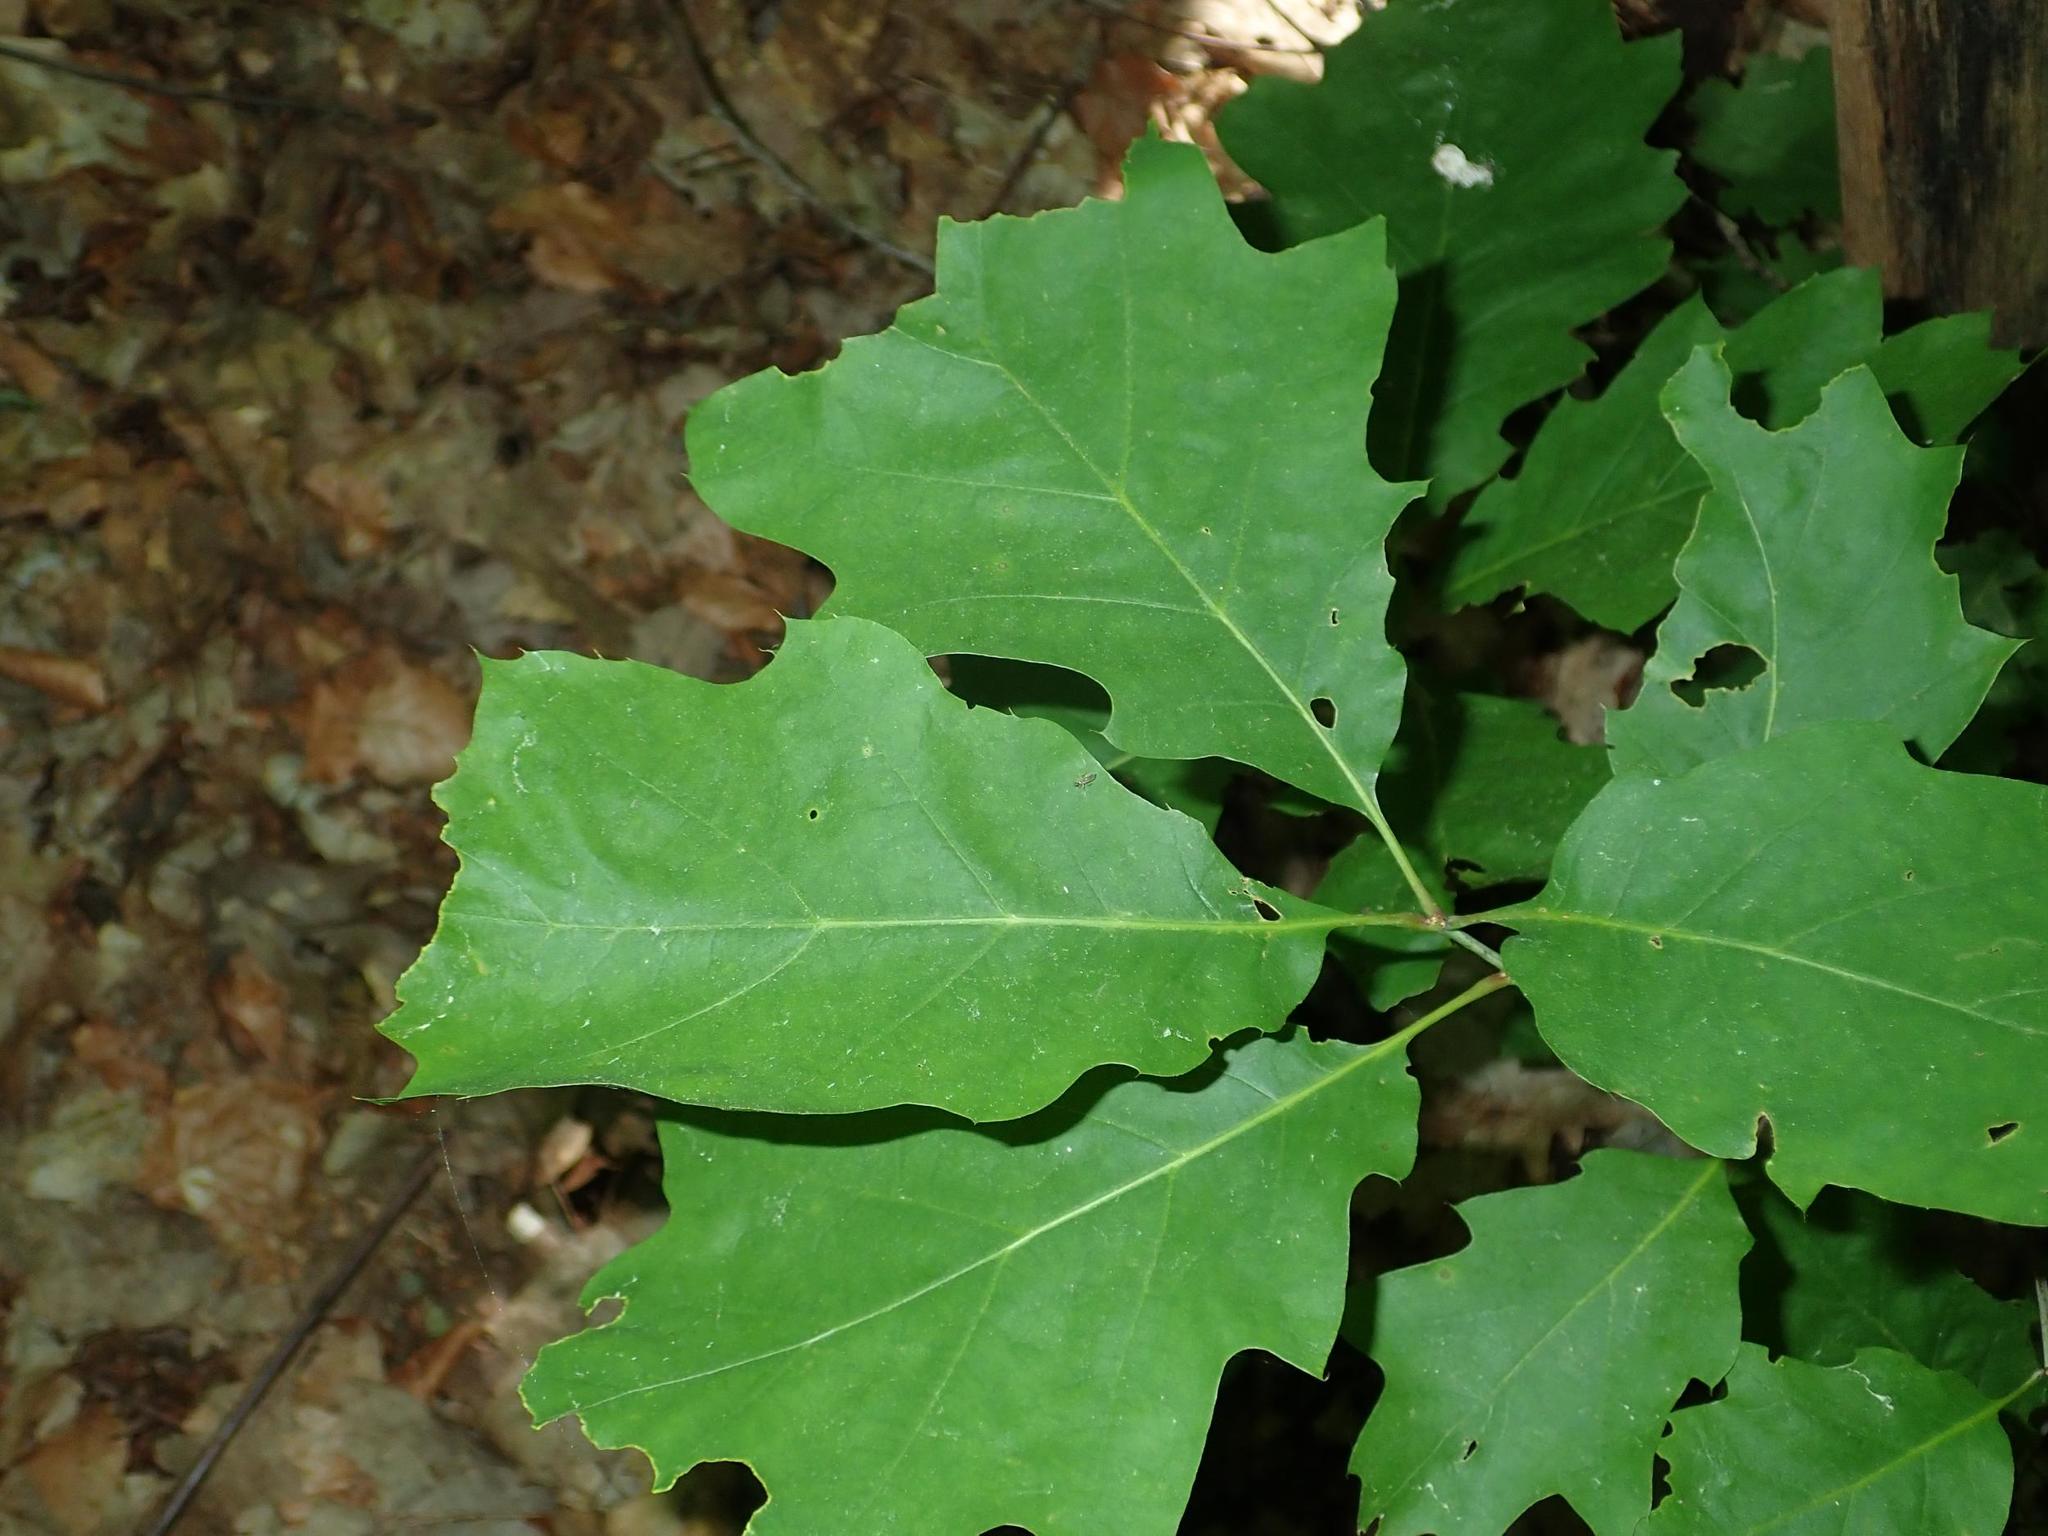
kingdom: Plantae
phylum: Tracheophyta
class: Magnoliopsida
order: Fagales
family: Fagaceae
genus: Quercus
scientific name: Quercus rubra
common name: Red oak
